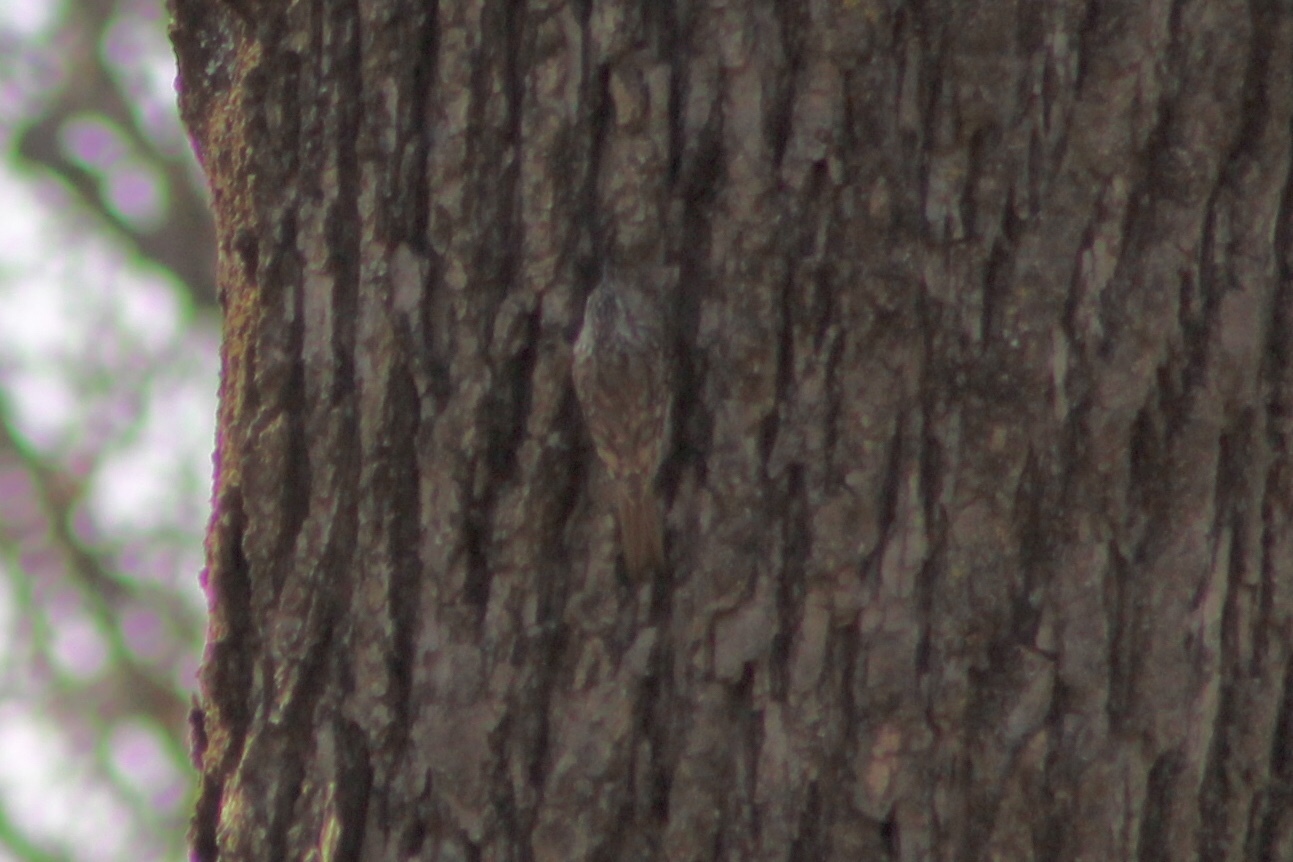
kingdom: Animalia
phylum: Chordata
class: Aves
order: Passeriformes
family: Certhiidae
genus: Certhia
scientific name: Certhia americana
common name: Brown creeper
